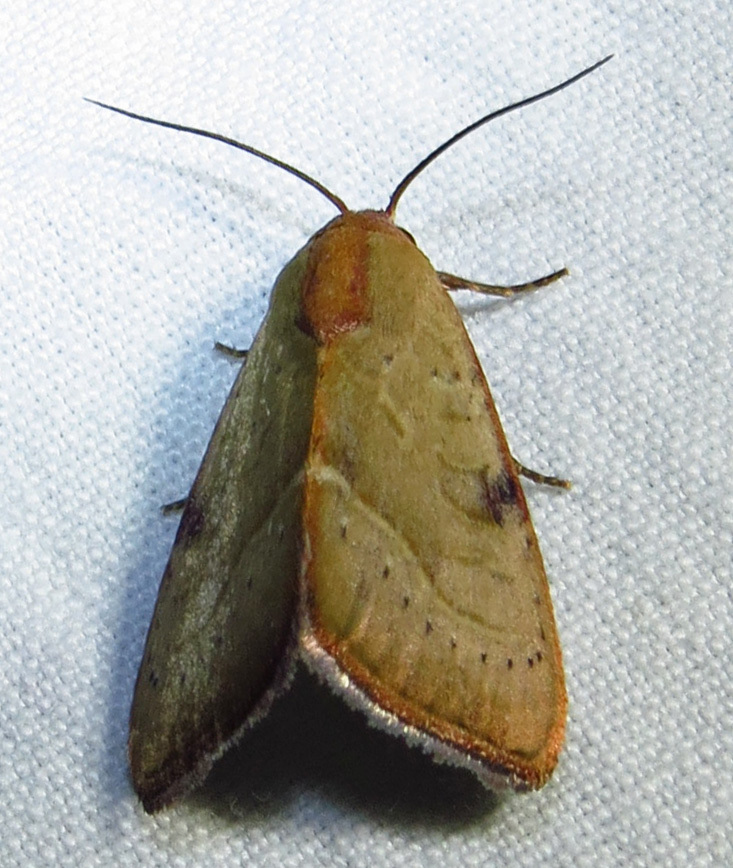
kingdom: Animalia
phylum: Arthropoda
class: Insecta
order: Lepidoptera
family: Noctuidae
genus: Galgula
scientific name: Galgula partita
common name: Wedgeling
